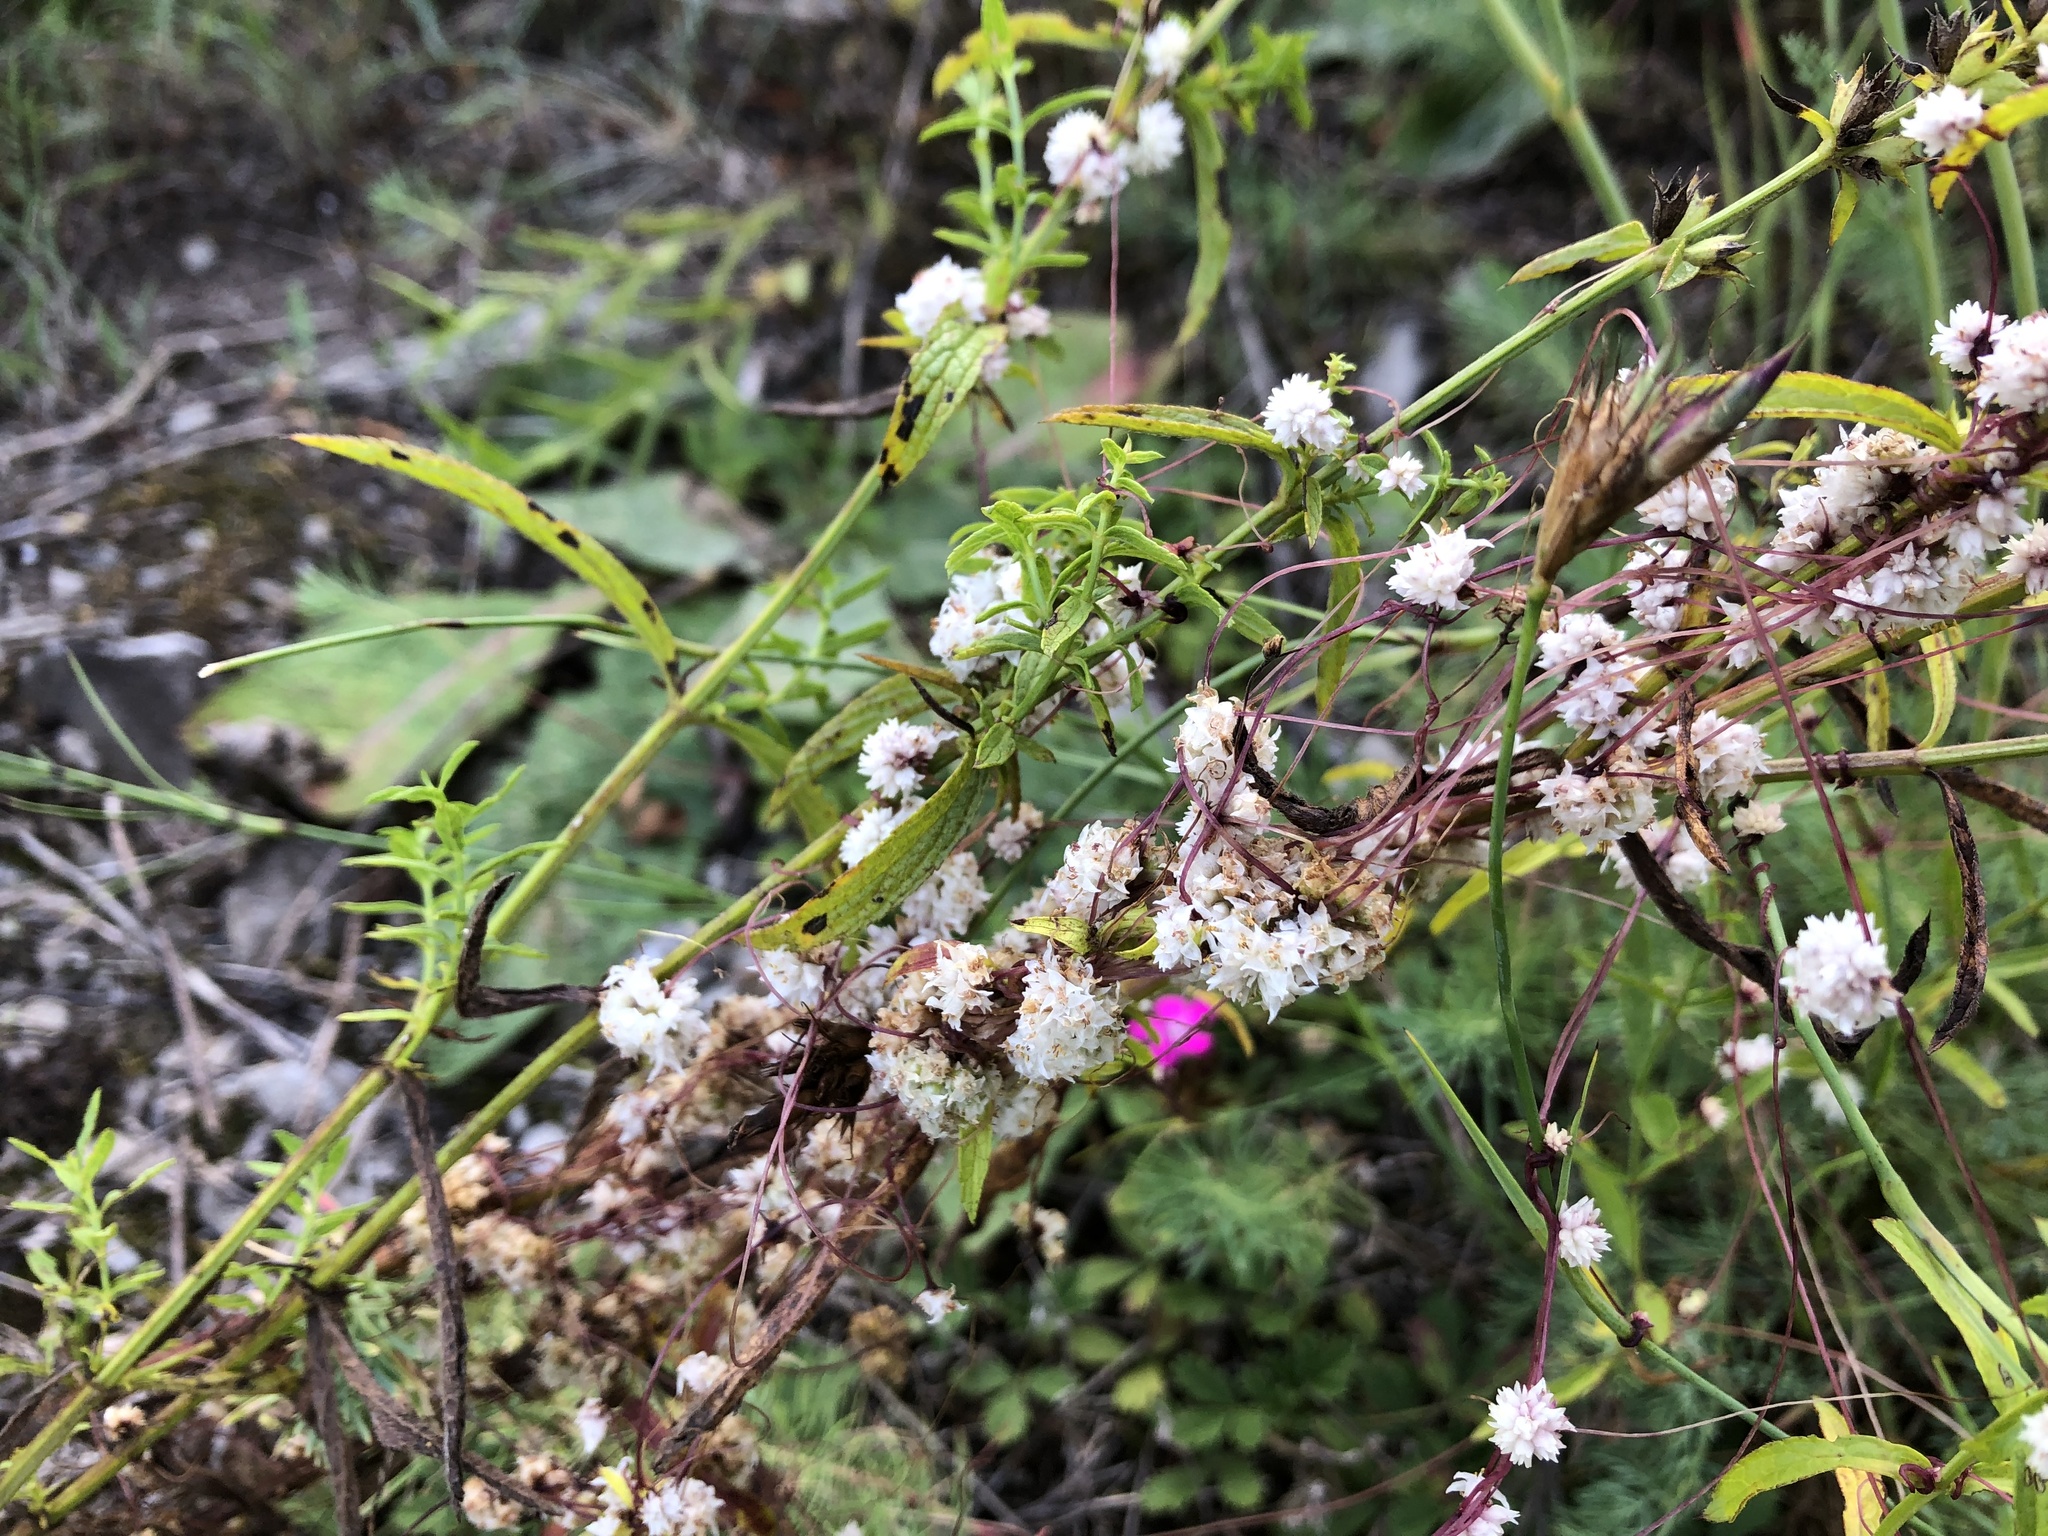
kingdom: Plantae
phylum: Tracheophyta
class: Magnoliopsida
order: Solanales
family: Convolvulaceae
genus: Cuscuta
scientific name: Cuscuta epithymum
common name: Clover dodder
